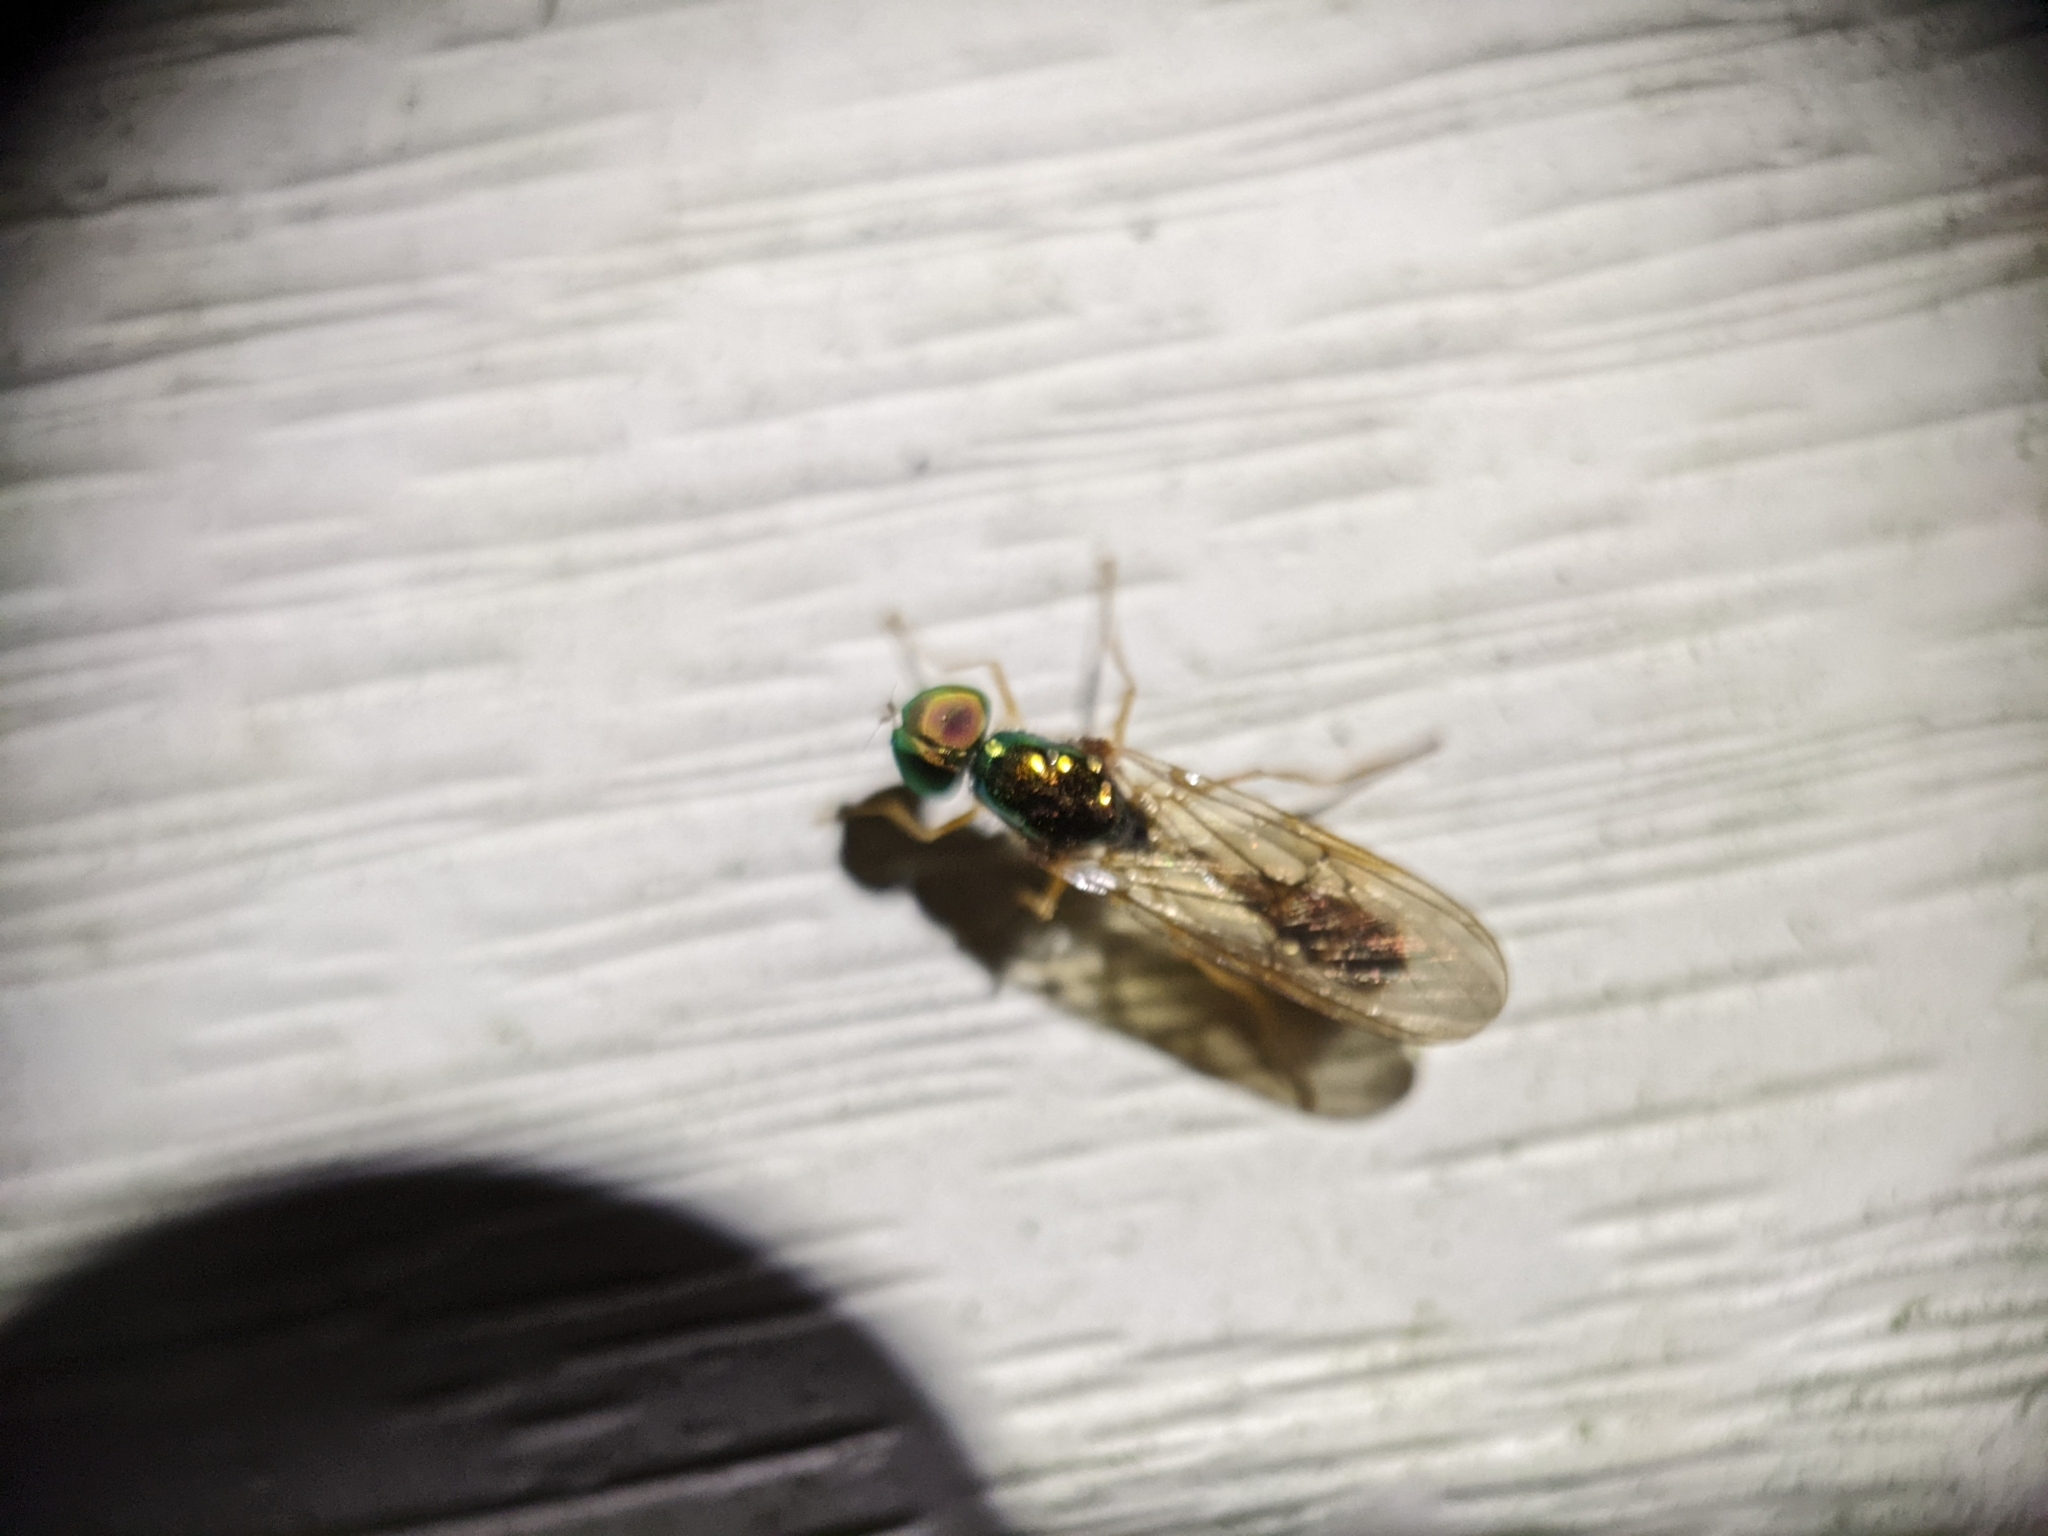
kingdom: Animalia
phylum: Arthropoda
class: Insecta
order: Diptera
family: Stratiomyidae
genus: Sargus
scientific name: Sargus fasciatus
